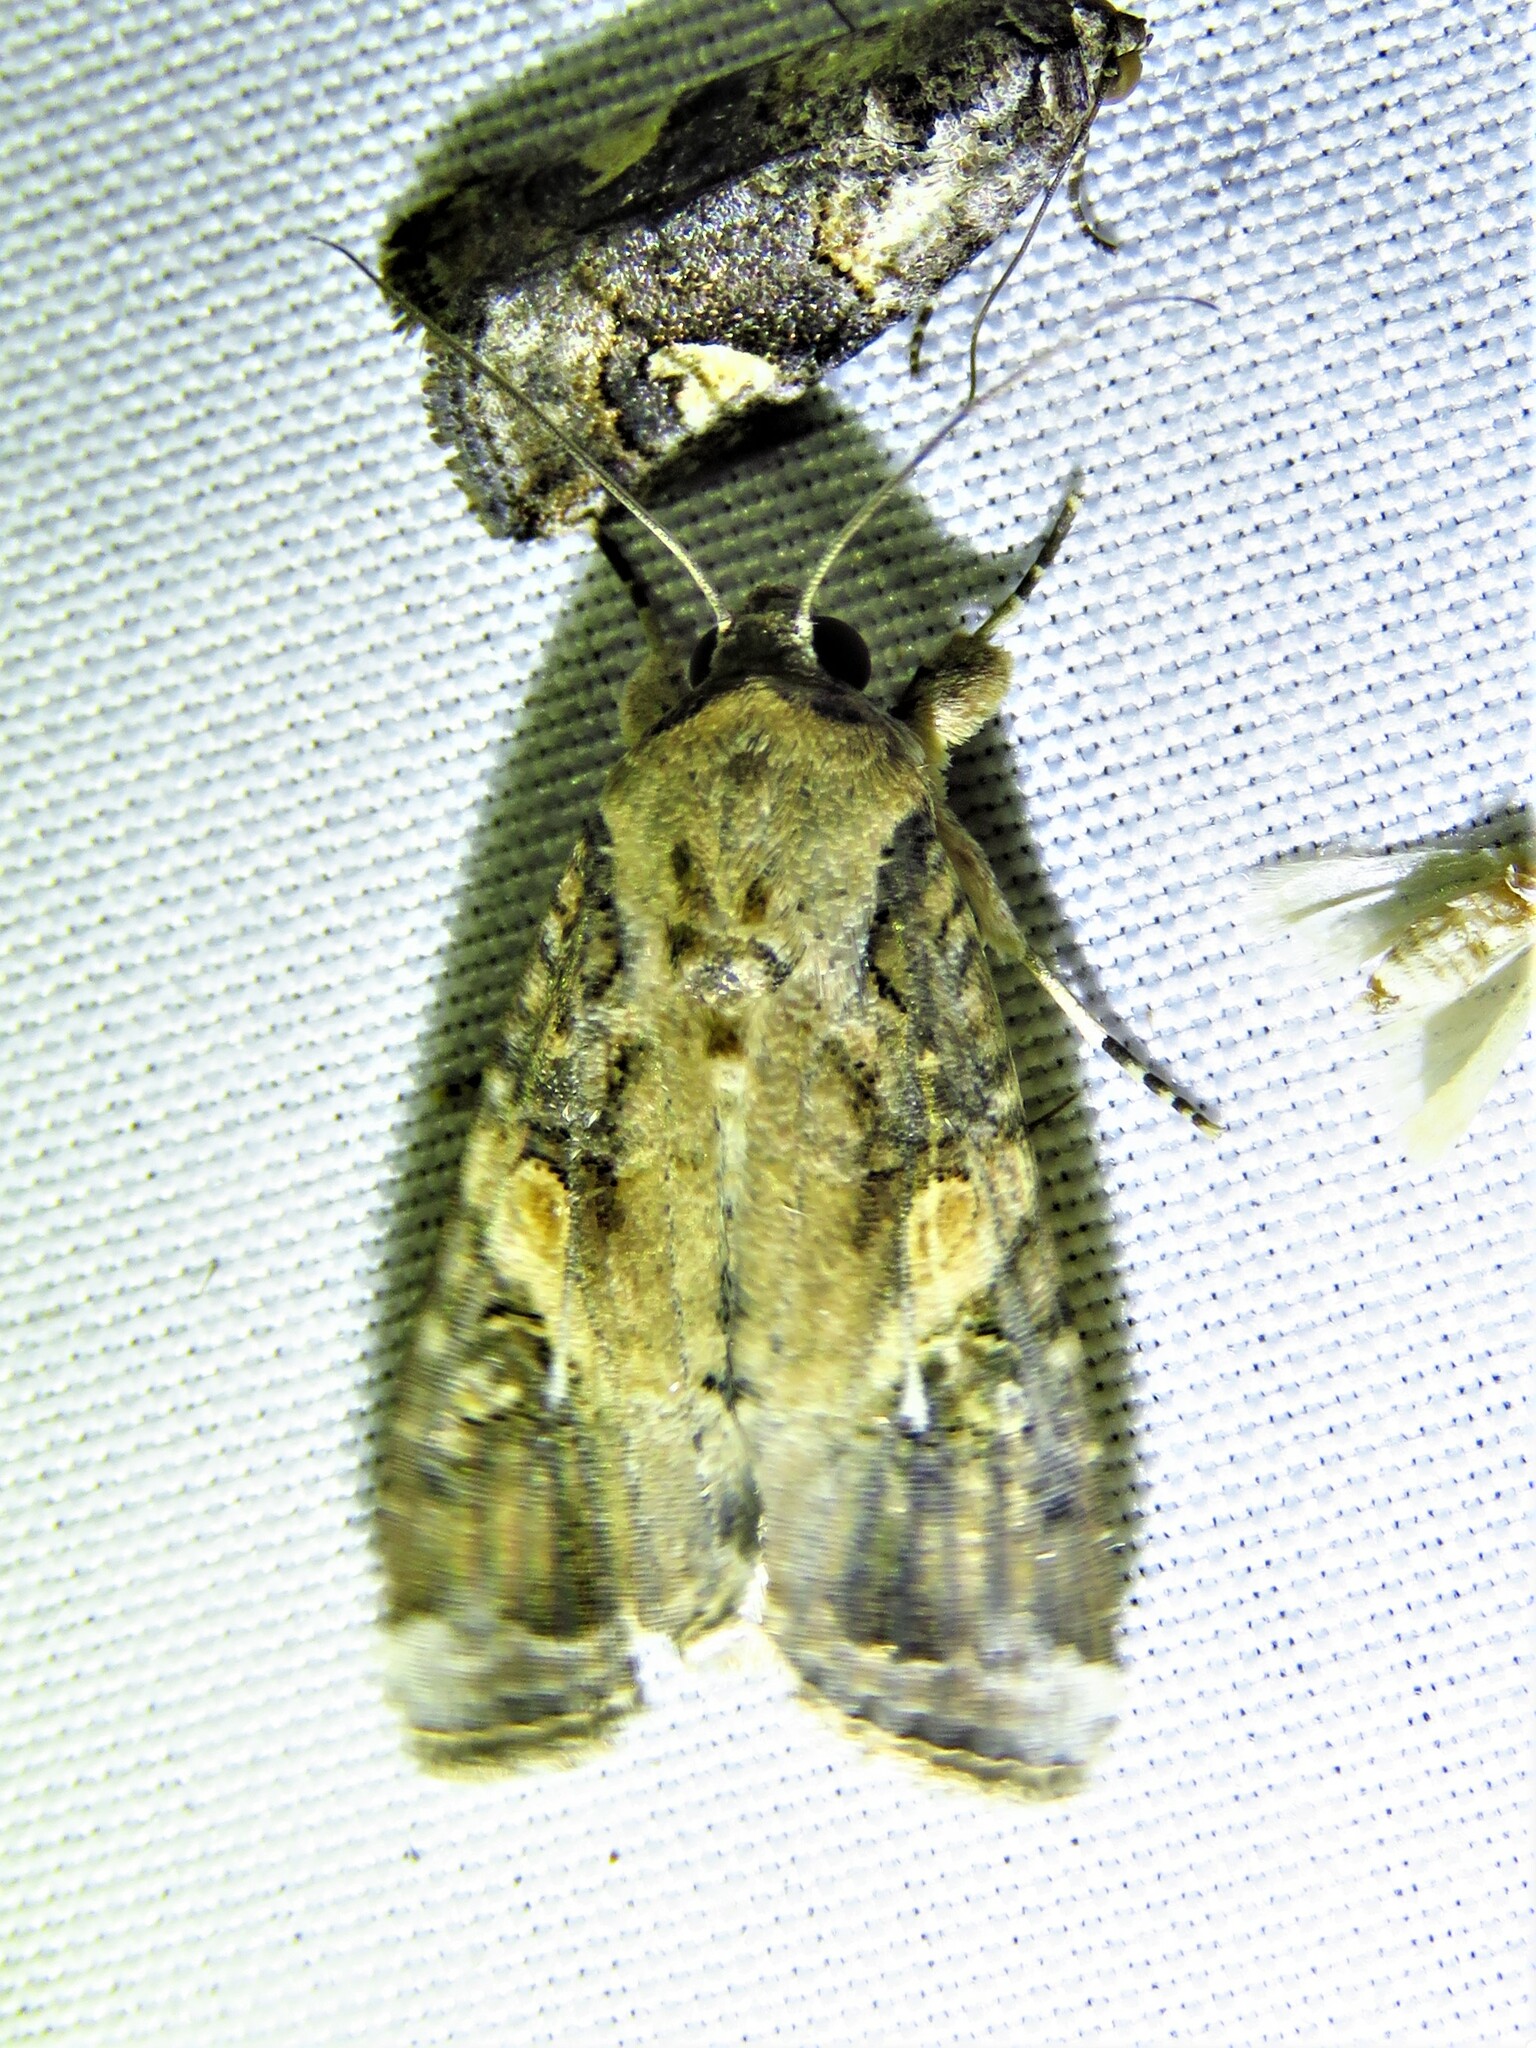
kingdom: Animalia
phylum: Arthropoda
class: Insecta
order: Lepidoptera
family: Noctuidae
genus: Spodoptera
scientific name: Spodoptera frugiperda
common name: Fall armyworm
